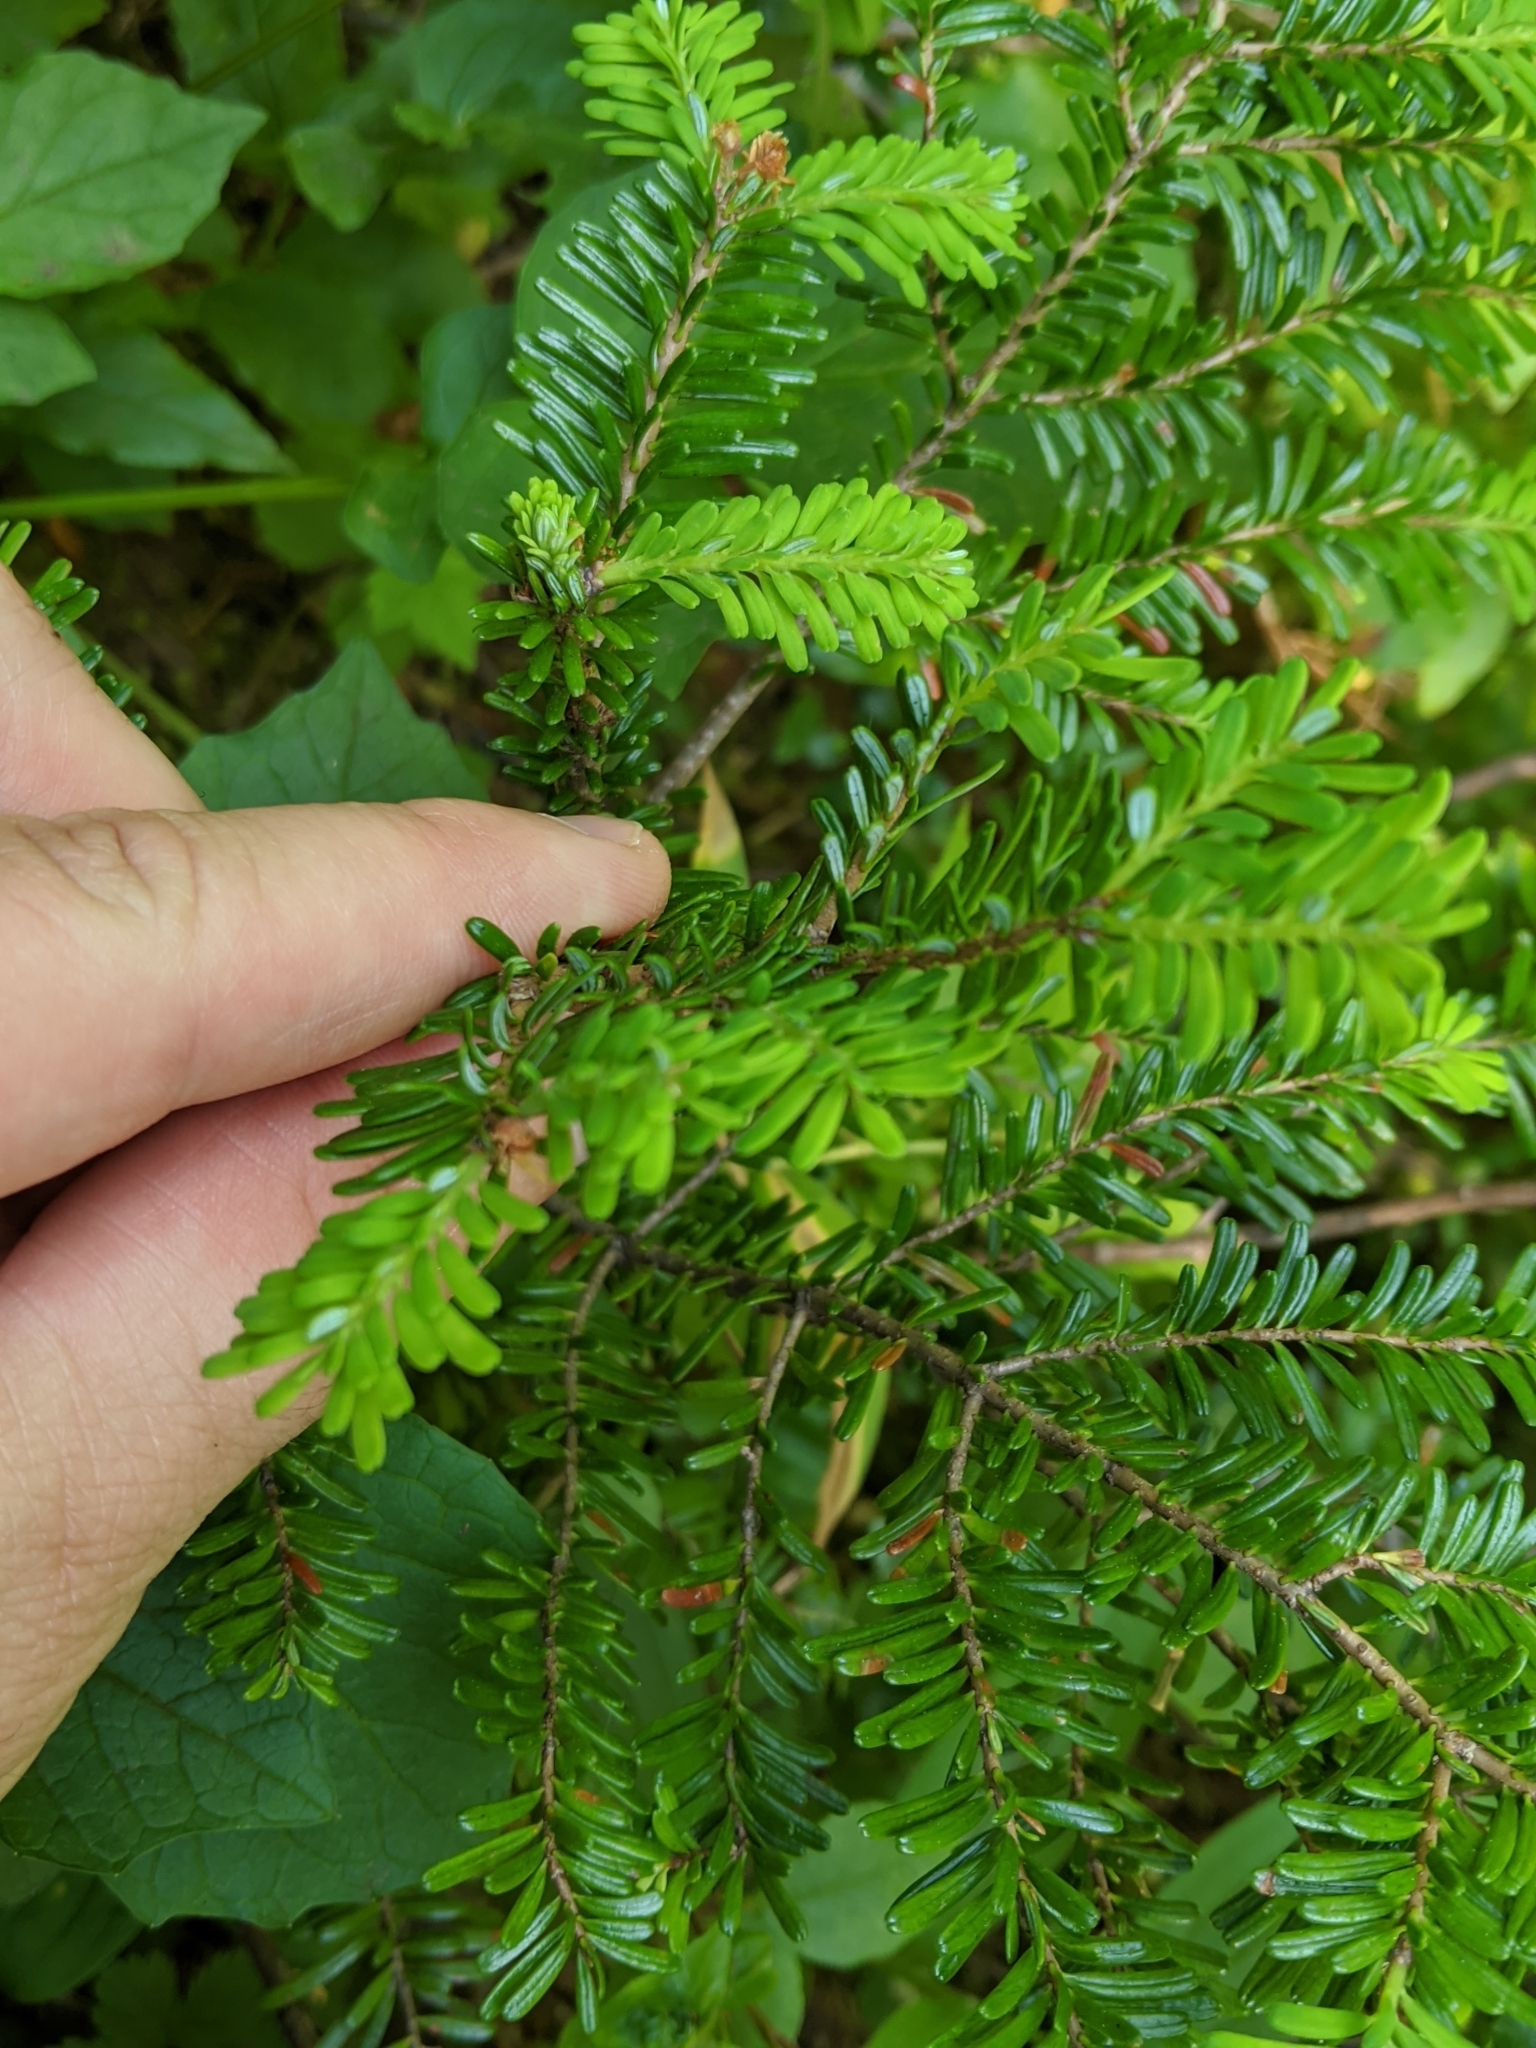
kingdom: Plantae
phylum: Tracheophyta
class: Pinopsida
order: Pinales
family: Pinaceae
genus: Abies
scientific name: Abies amabilis
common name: Pacific silver fir
